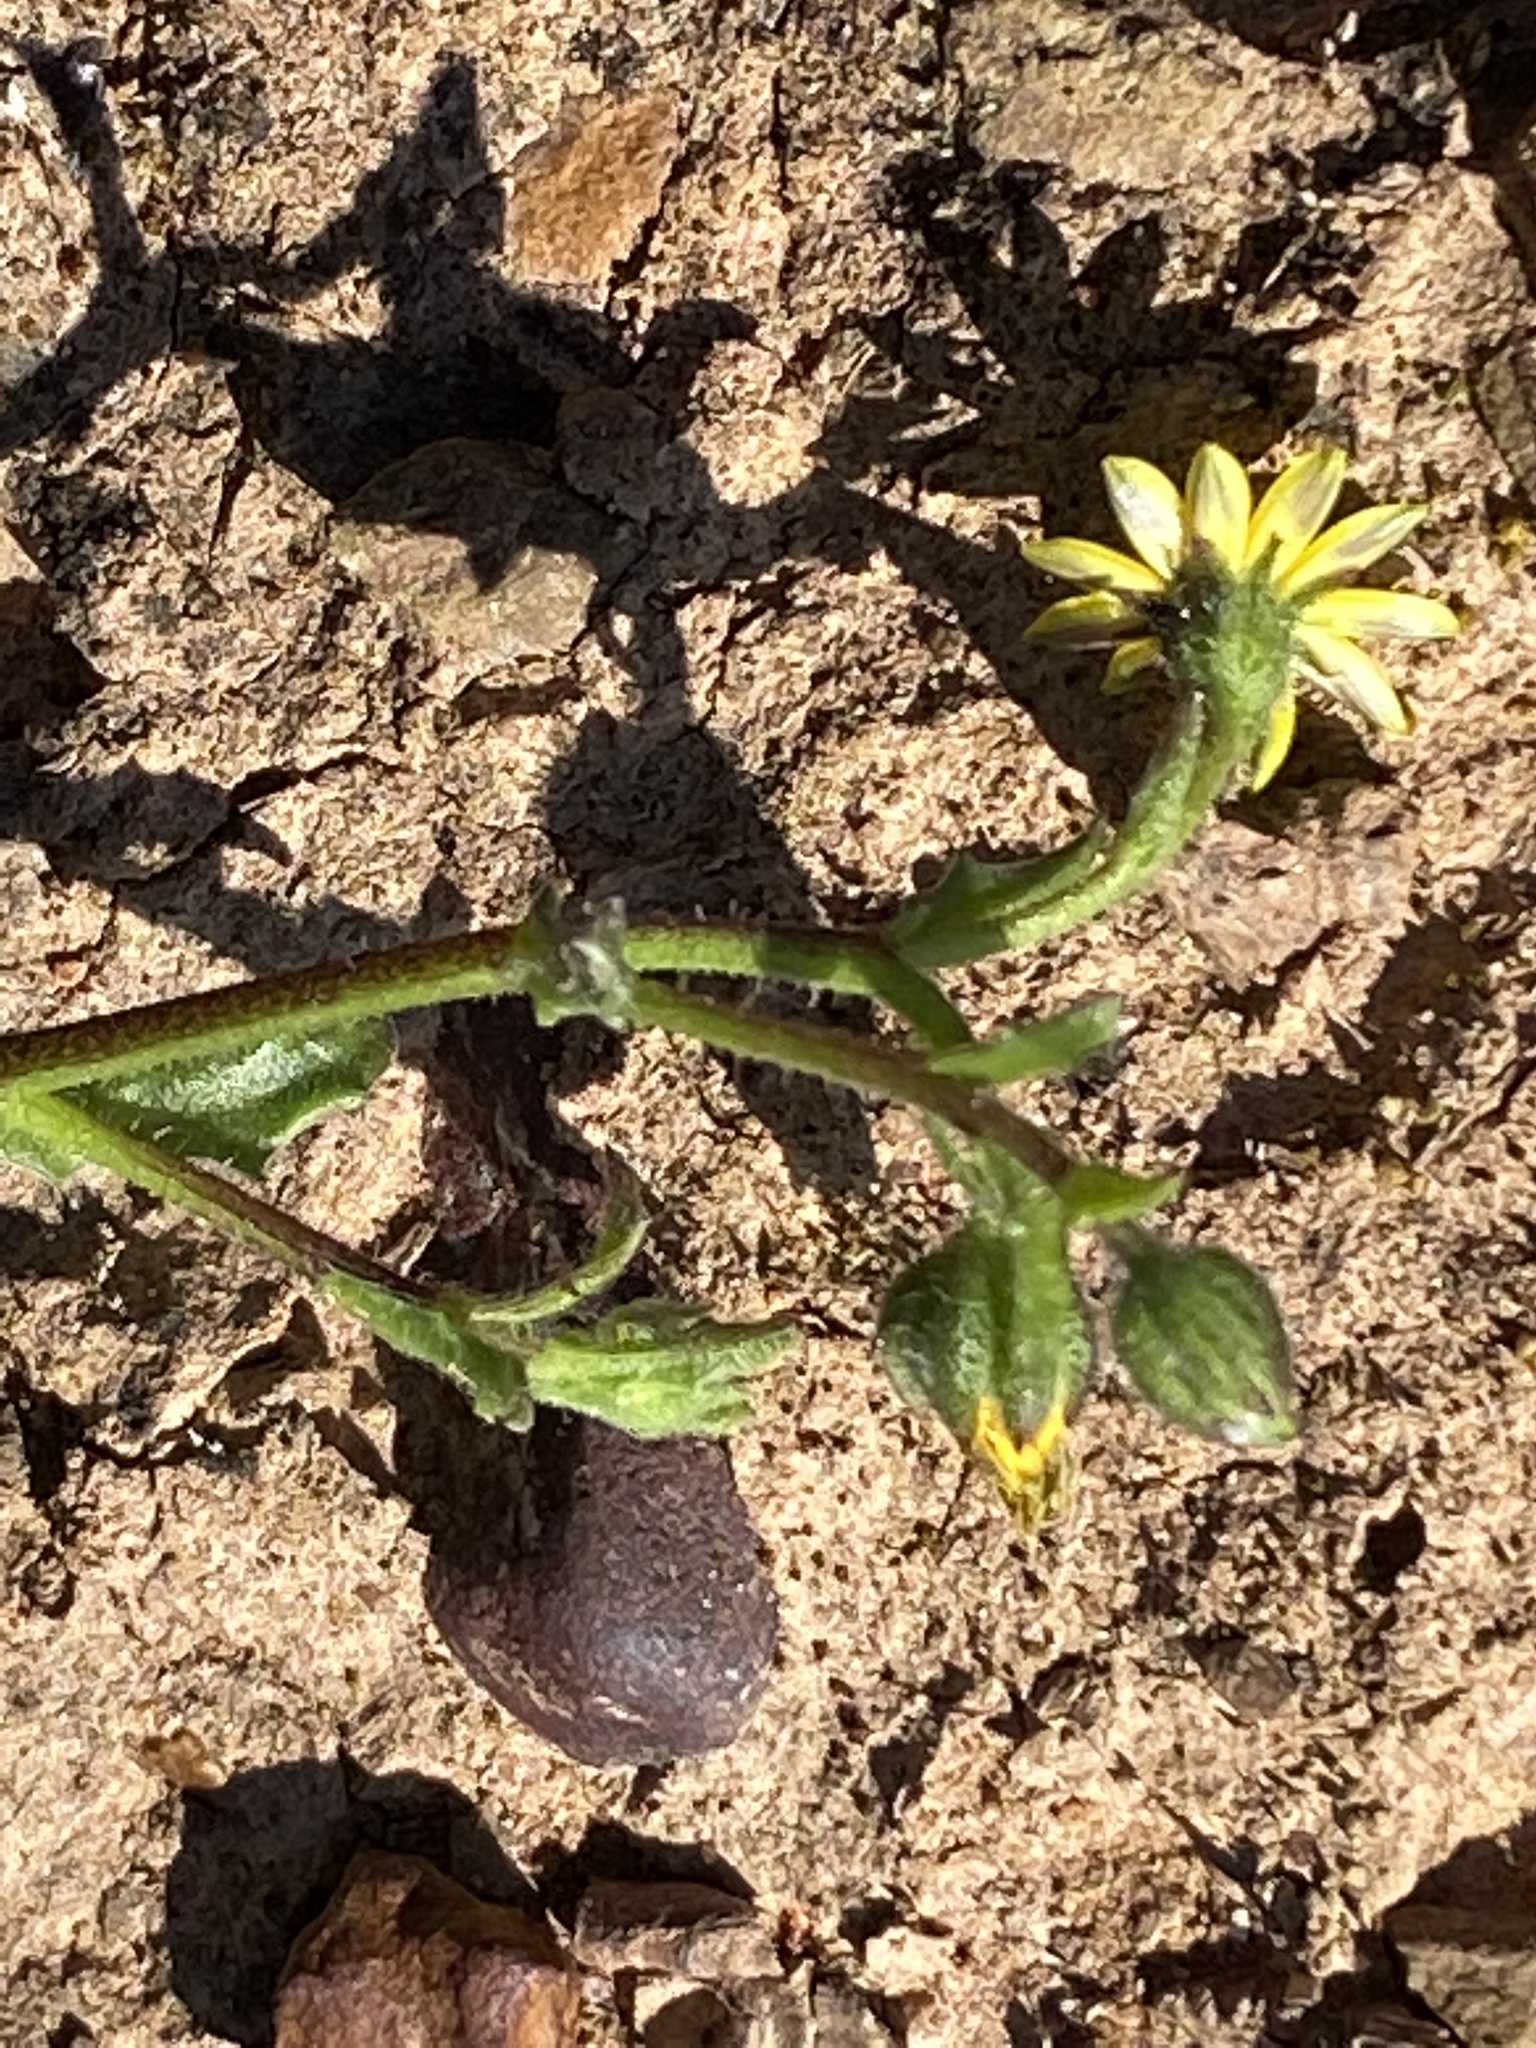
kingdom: Plantae
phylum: Tracheophyta
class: Magnoliopsida
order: Asterales
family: Asteraceae
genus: Osteospermum
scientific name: Osteospermum calendulaceum
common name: Stinking roger
